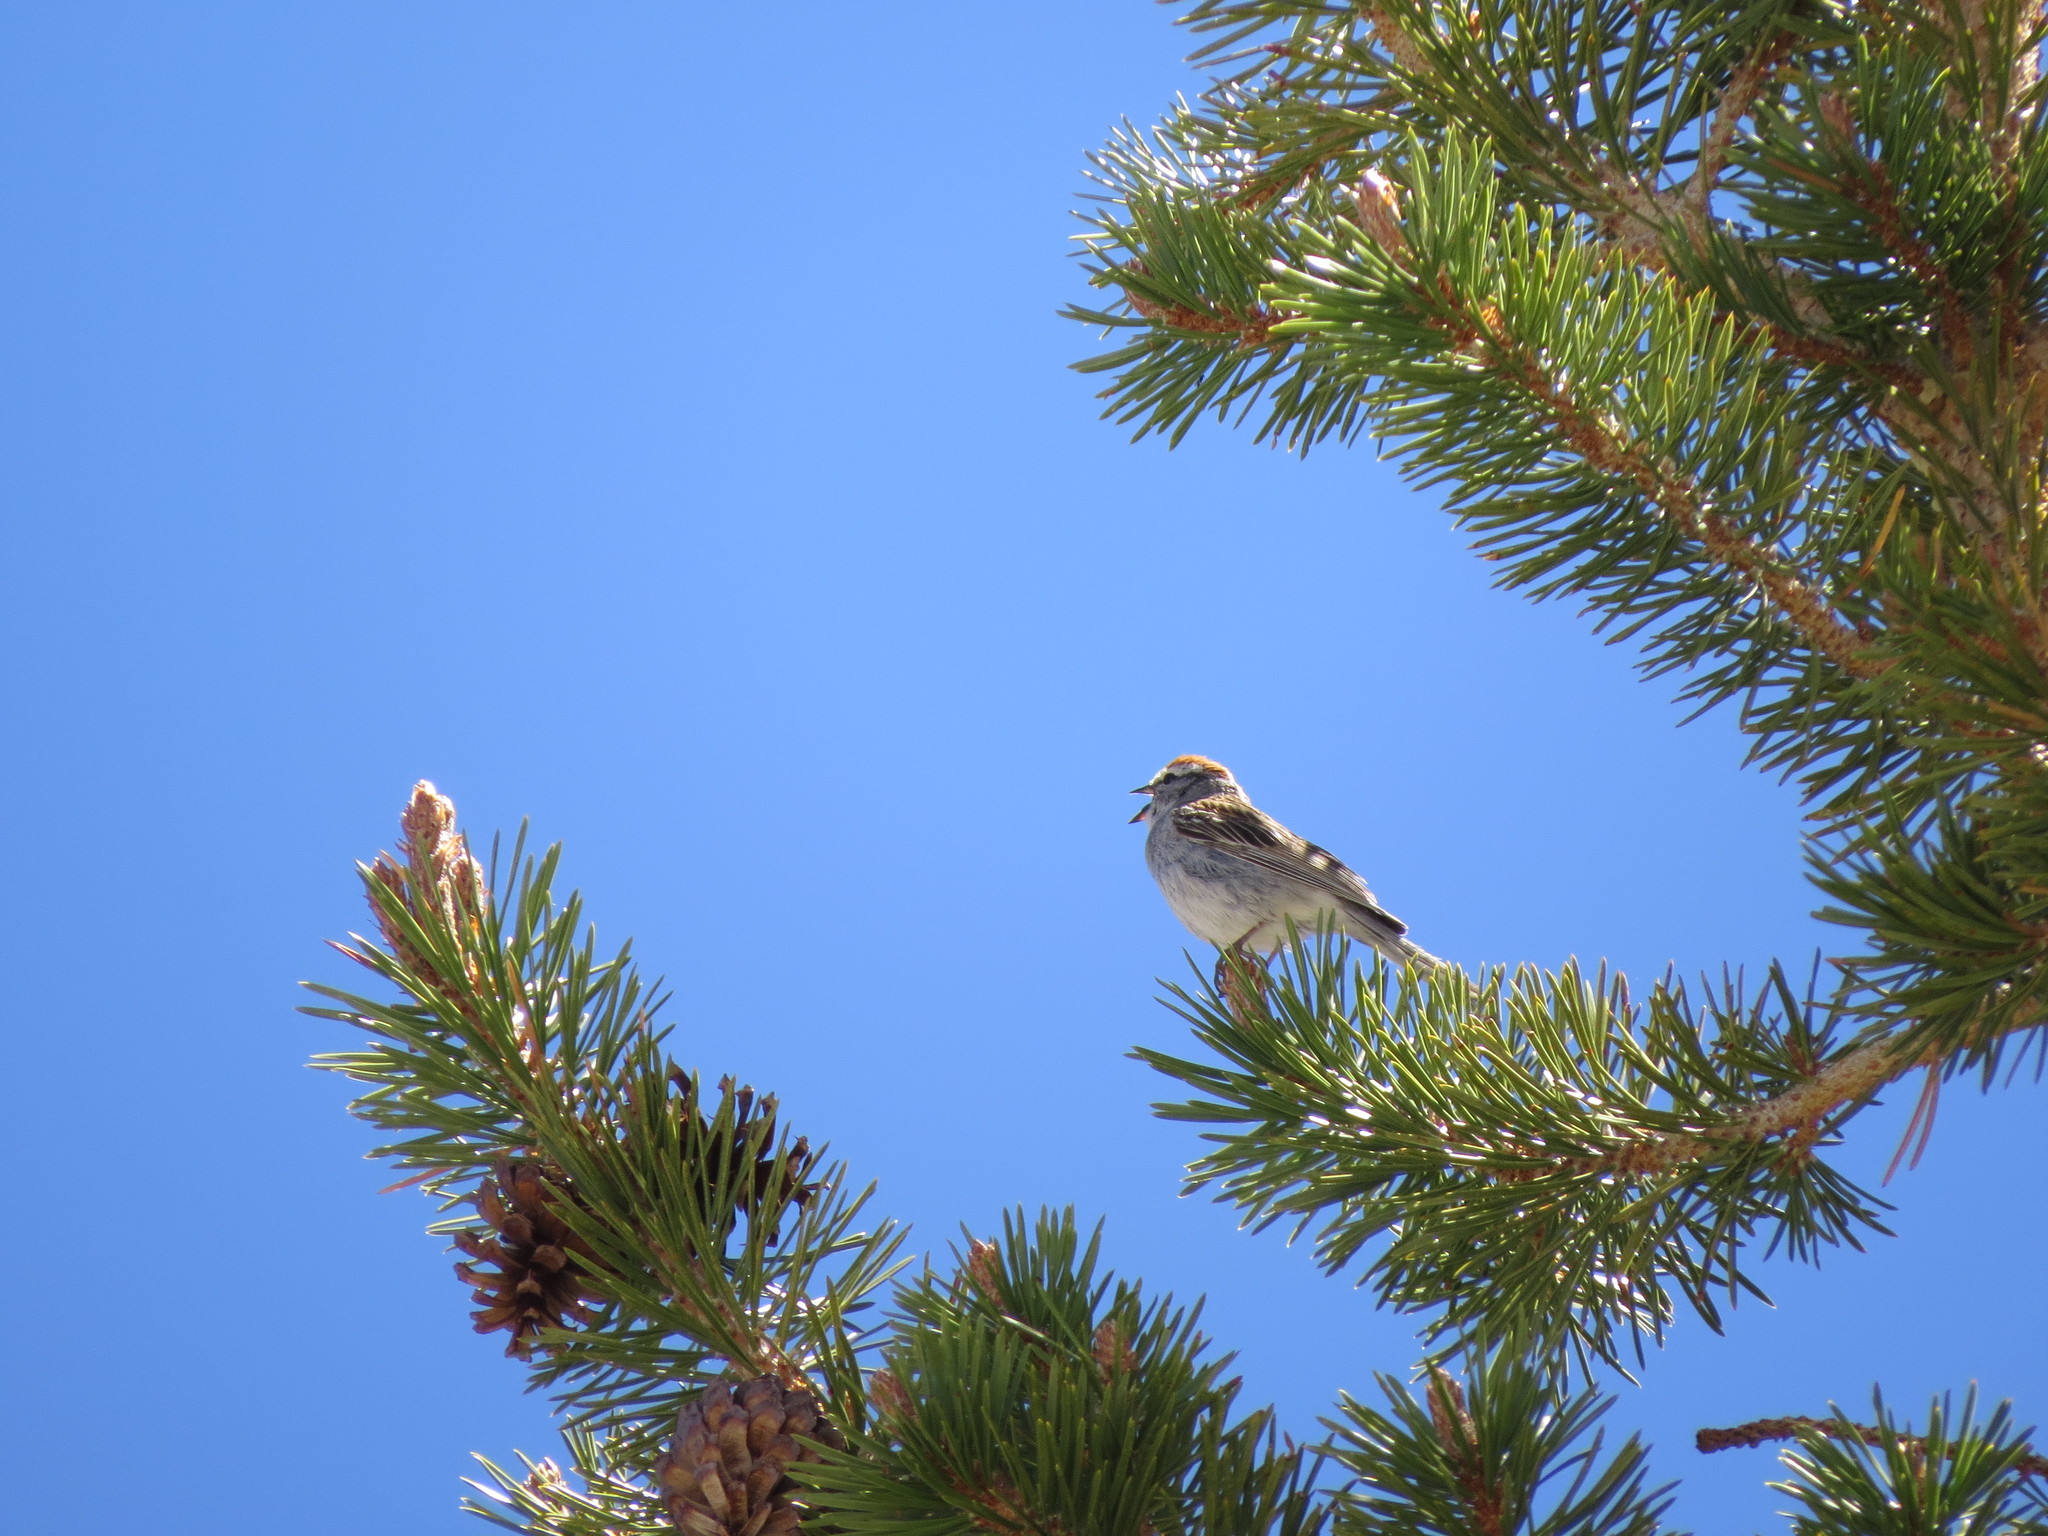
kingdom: Animalia
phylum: Chordata
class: Aves
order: Passeriformes
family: Passerellidae
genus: Spizella
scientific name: Spizella passerina
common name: Chipping sparrow
